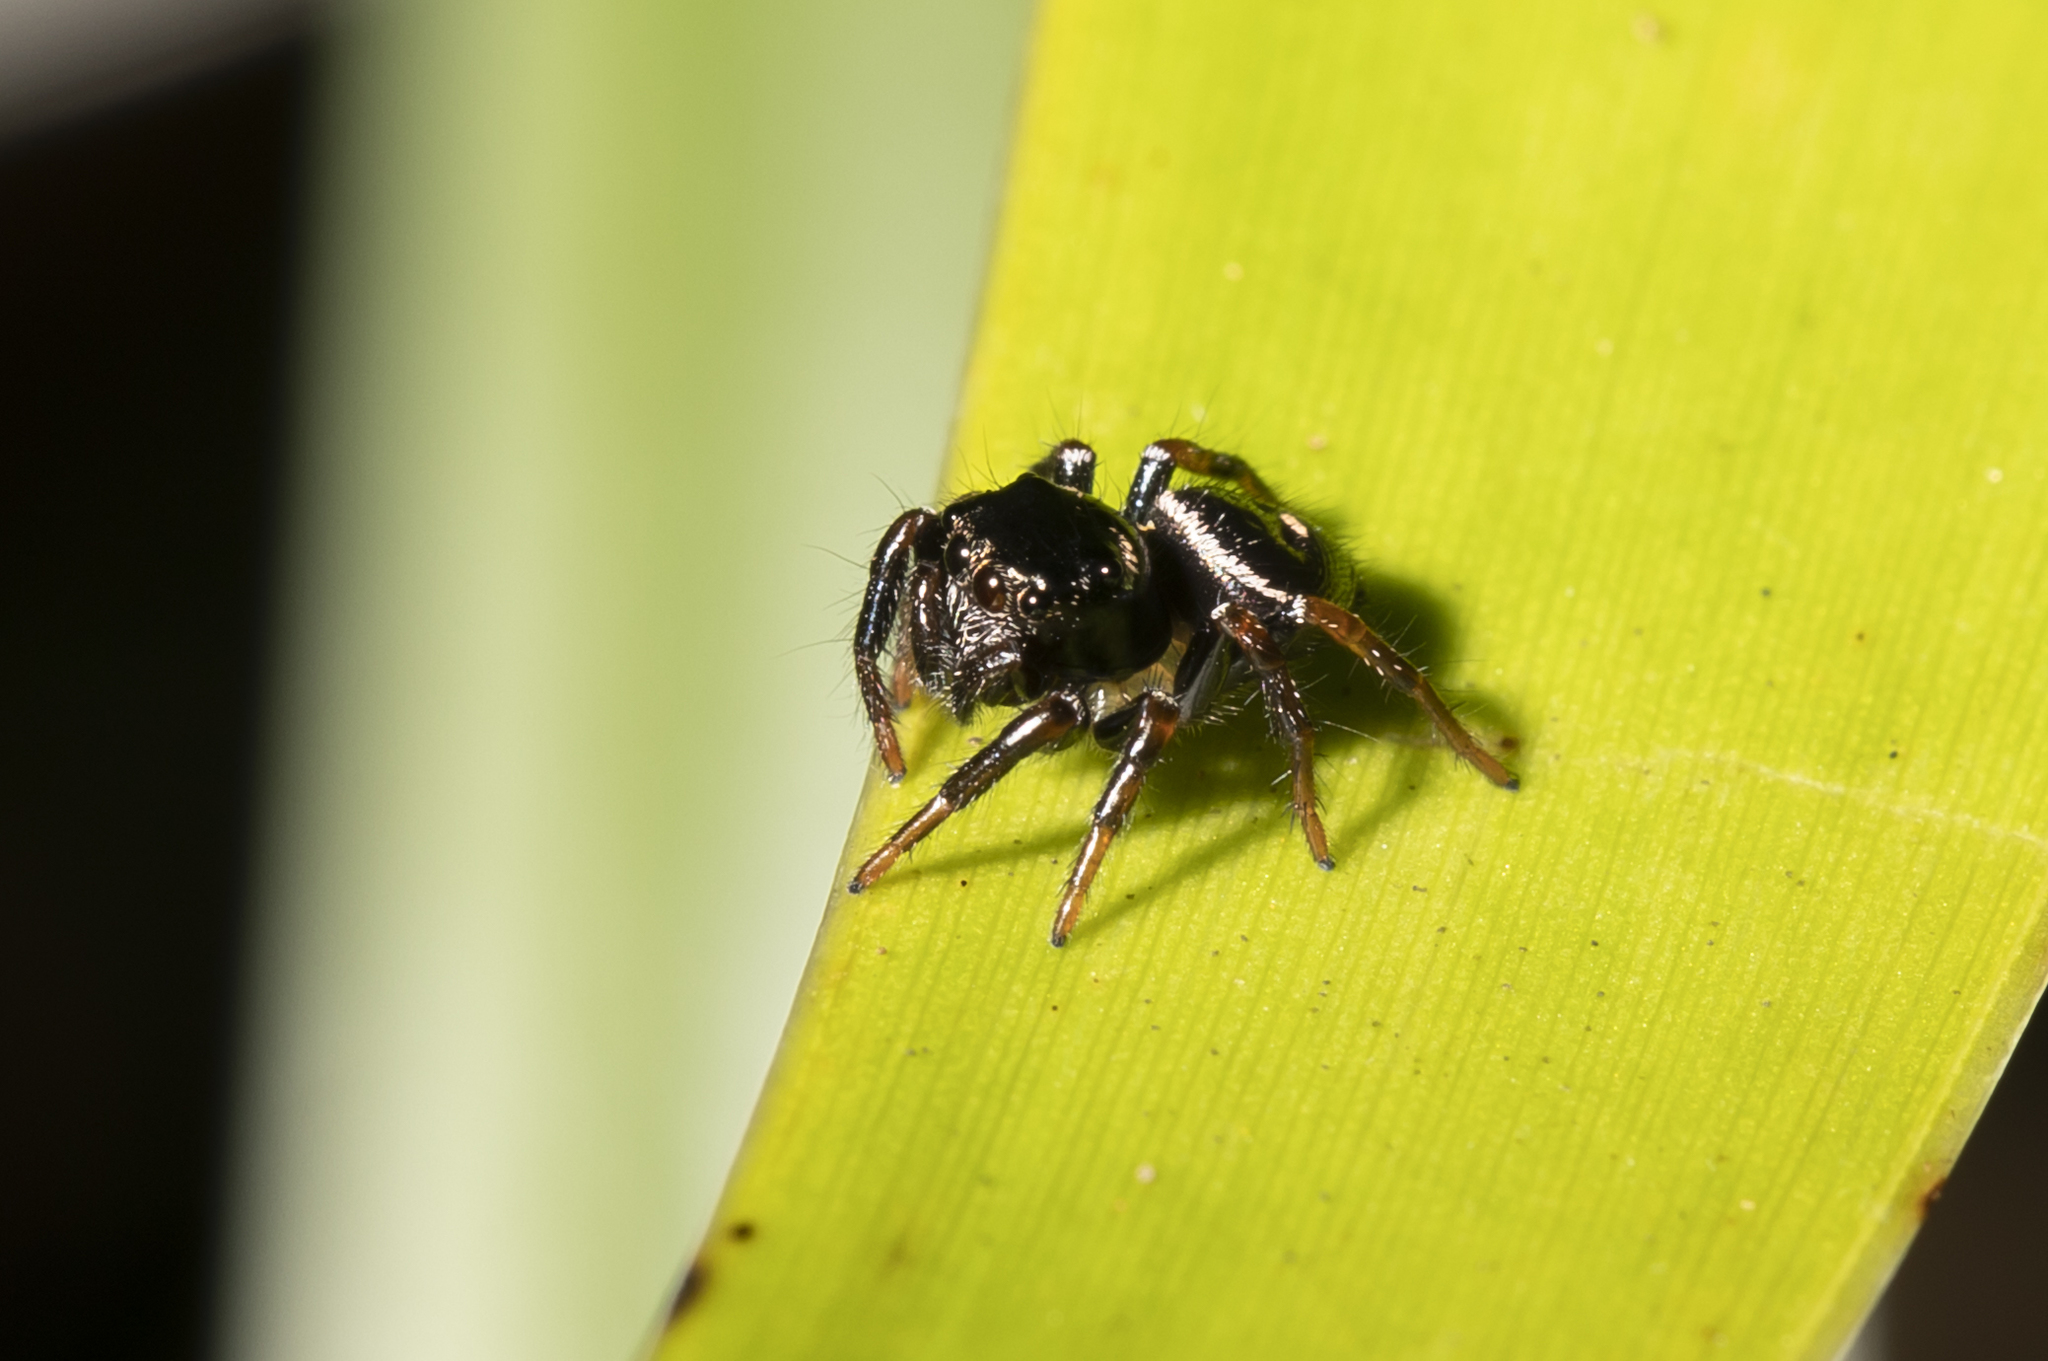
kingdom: Animalia
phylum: Arthropoda
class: Arachnida
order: Araneae
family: Salticidae
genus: Zenodorus
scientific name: Zenodorus orbiculatus
